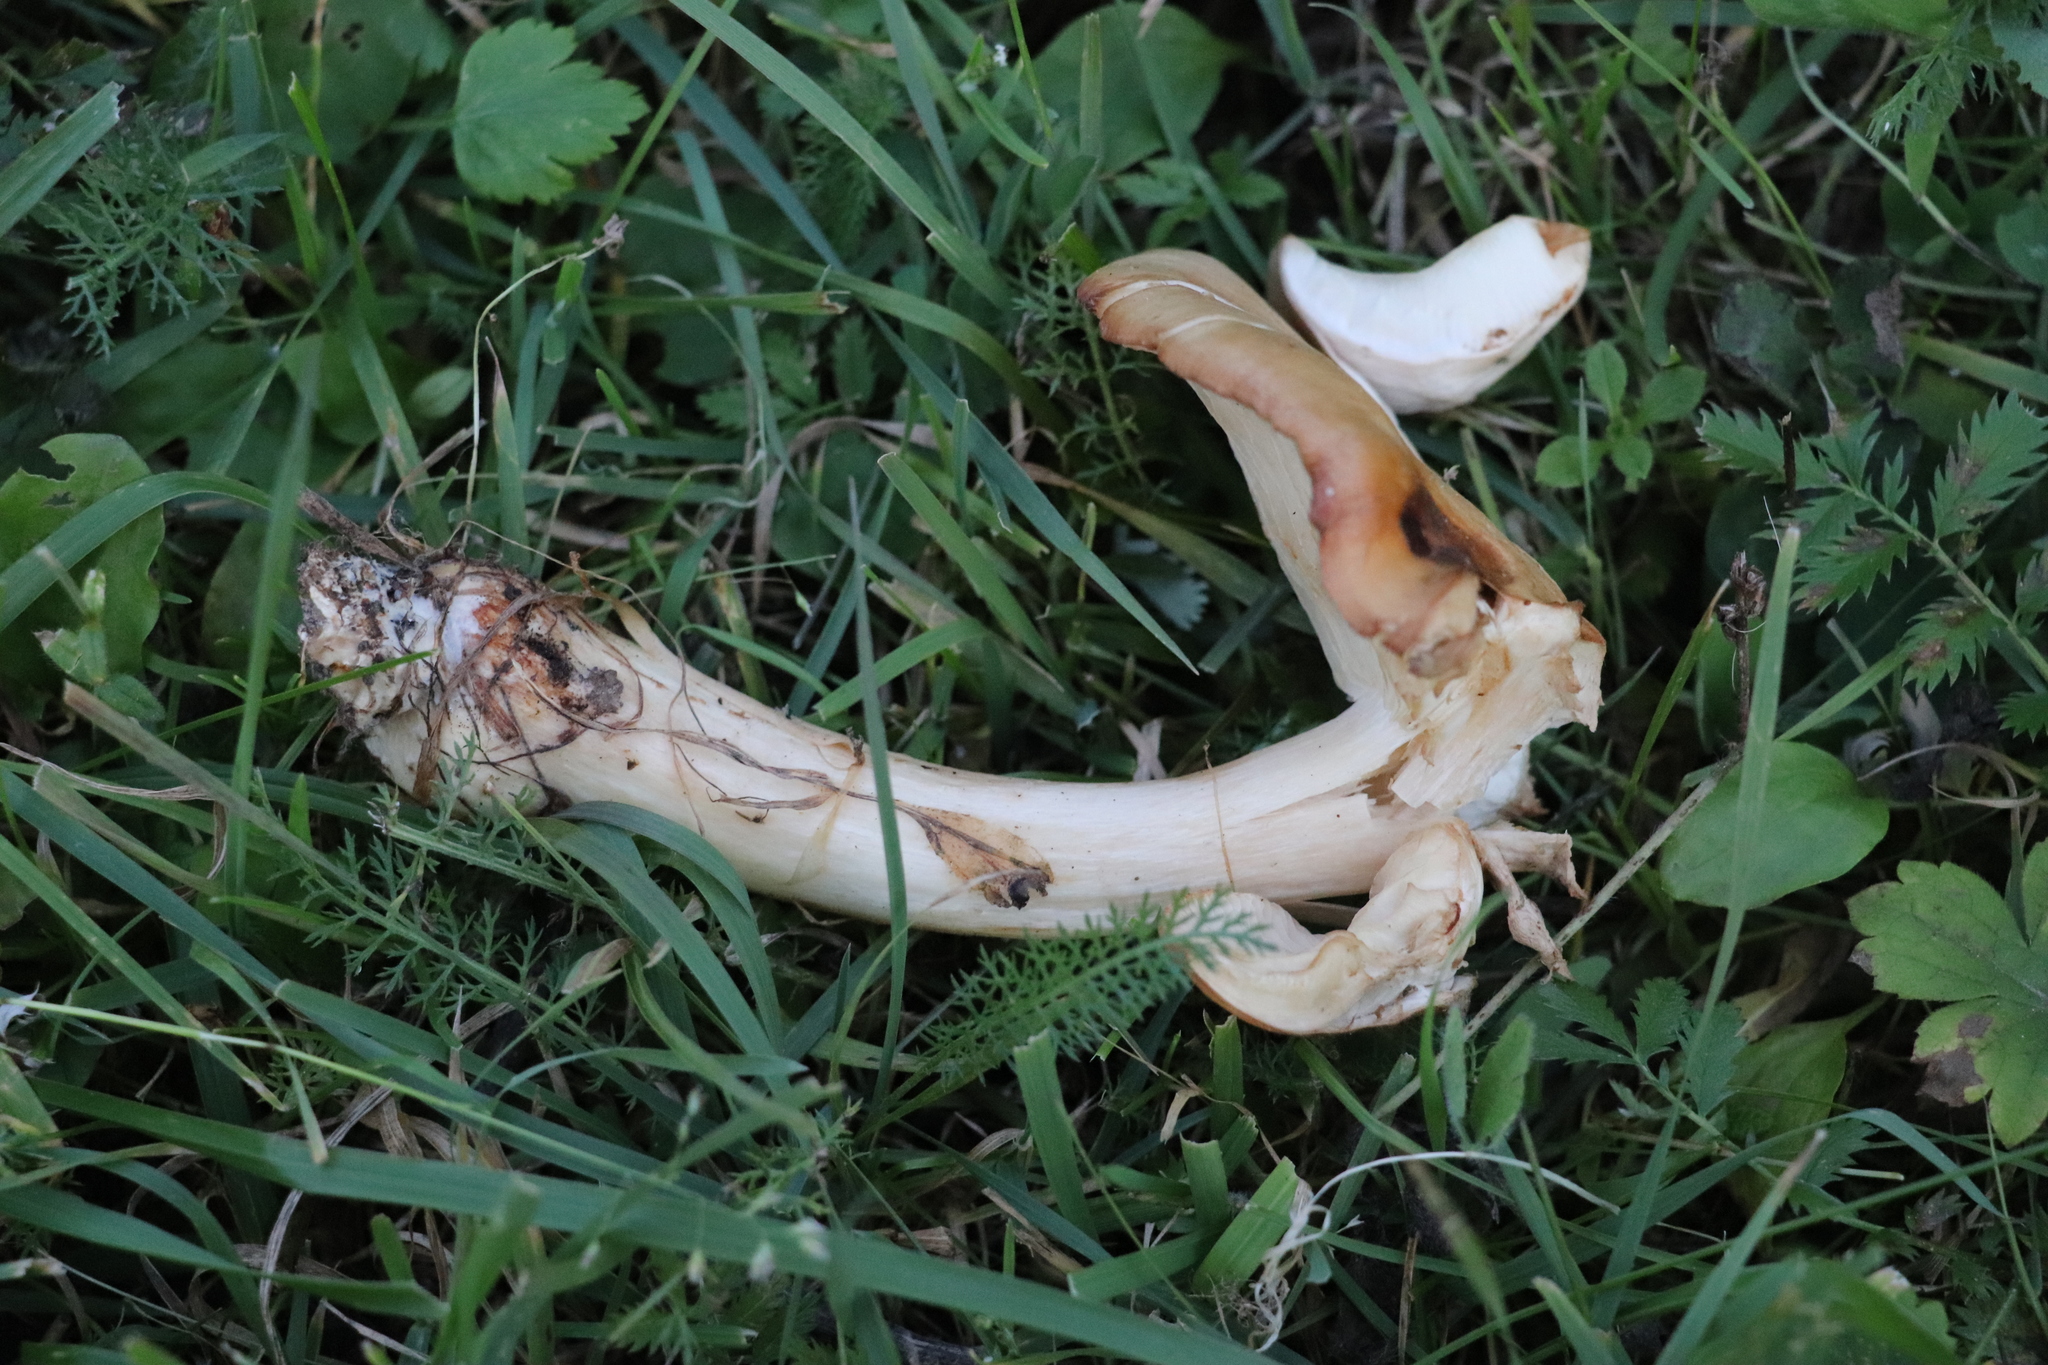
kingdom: Fungi
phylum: Basidiomycota
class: Agaricomycetes
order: Agaricales
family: Lyophyllaceae
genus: Lyophyllum
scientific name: Lyophyllum decastes
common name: Clustered domecap
